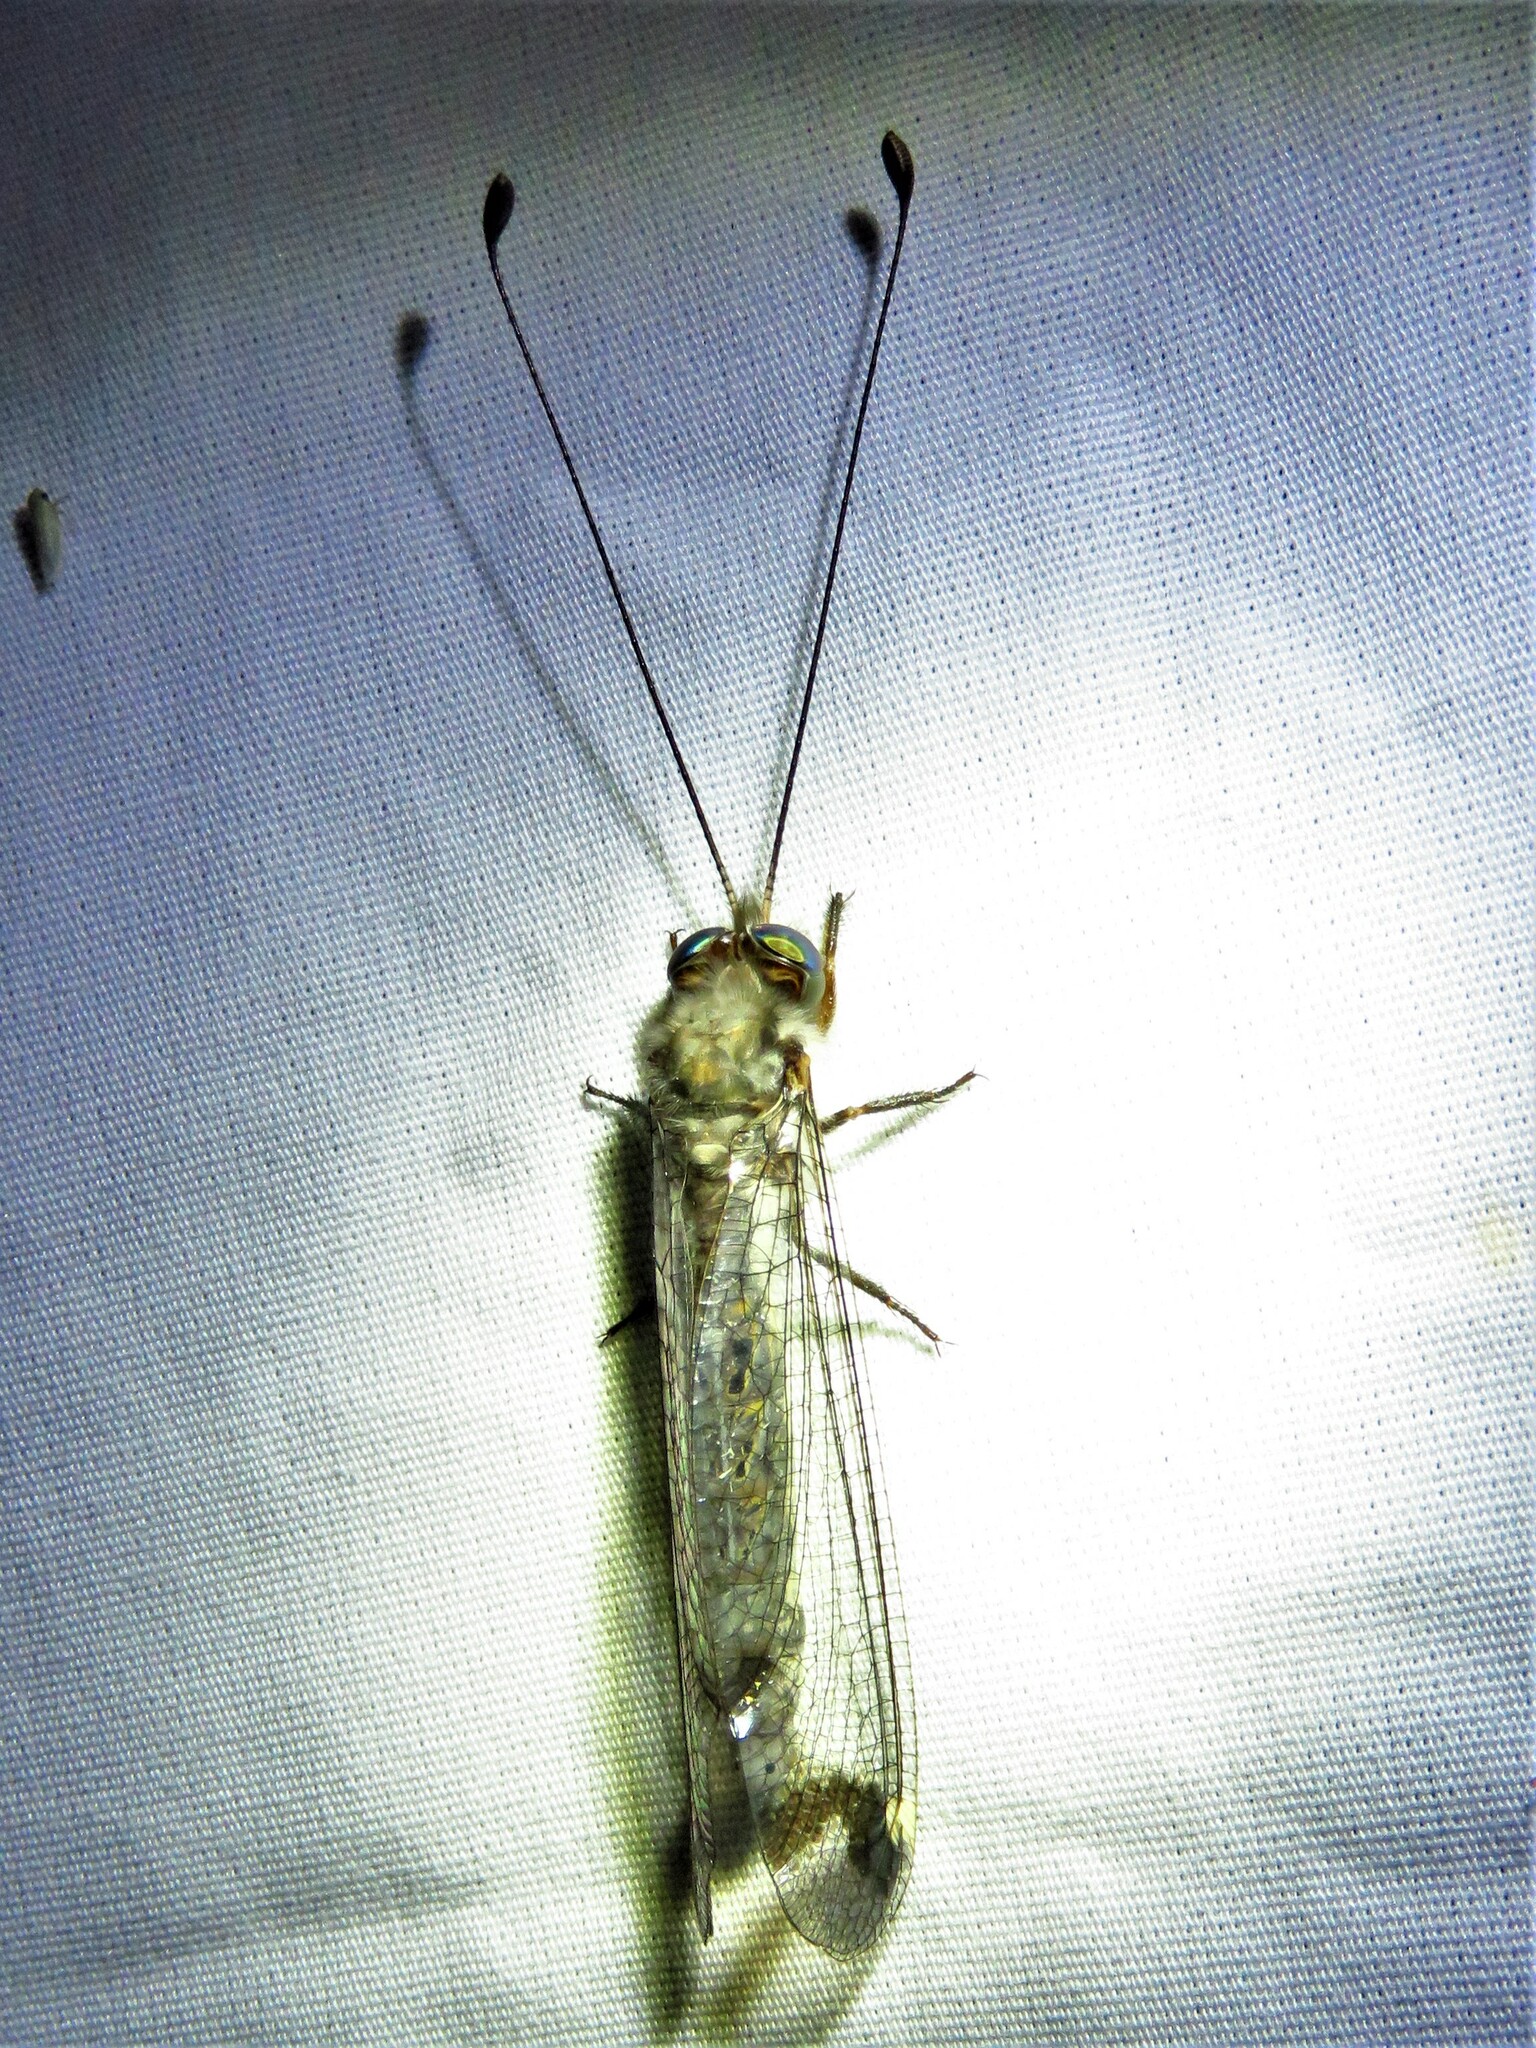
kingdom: Animalia
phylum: Arthropoda
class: Insecta
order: Neuroptera
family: Ascalaphidae
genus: Ululodes
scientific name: Ululodes quadripunctatus
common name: Four-spotted owlfly
